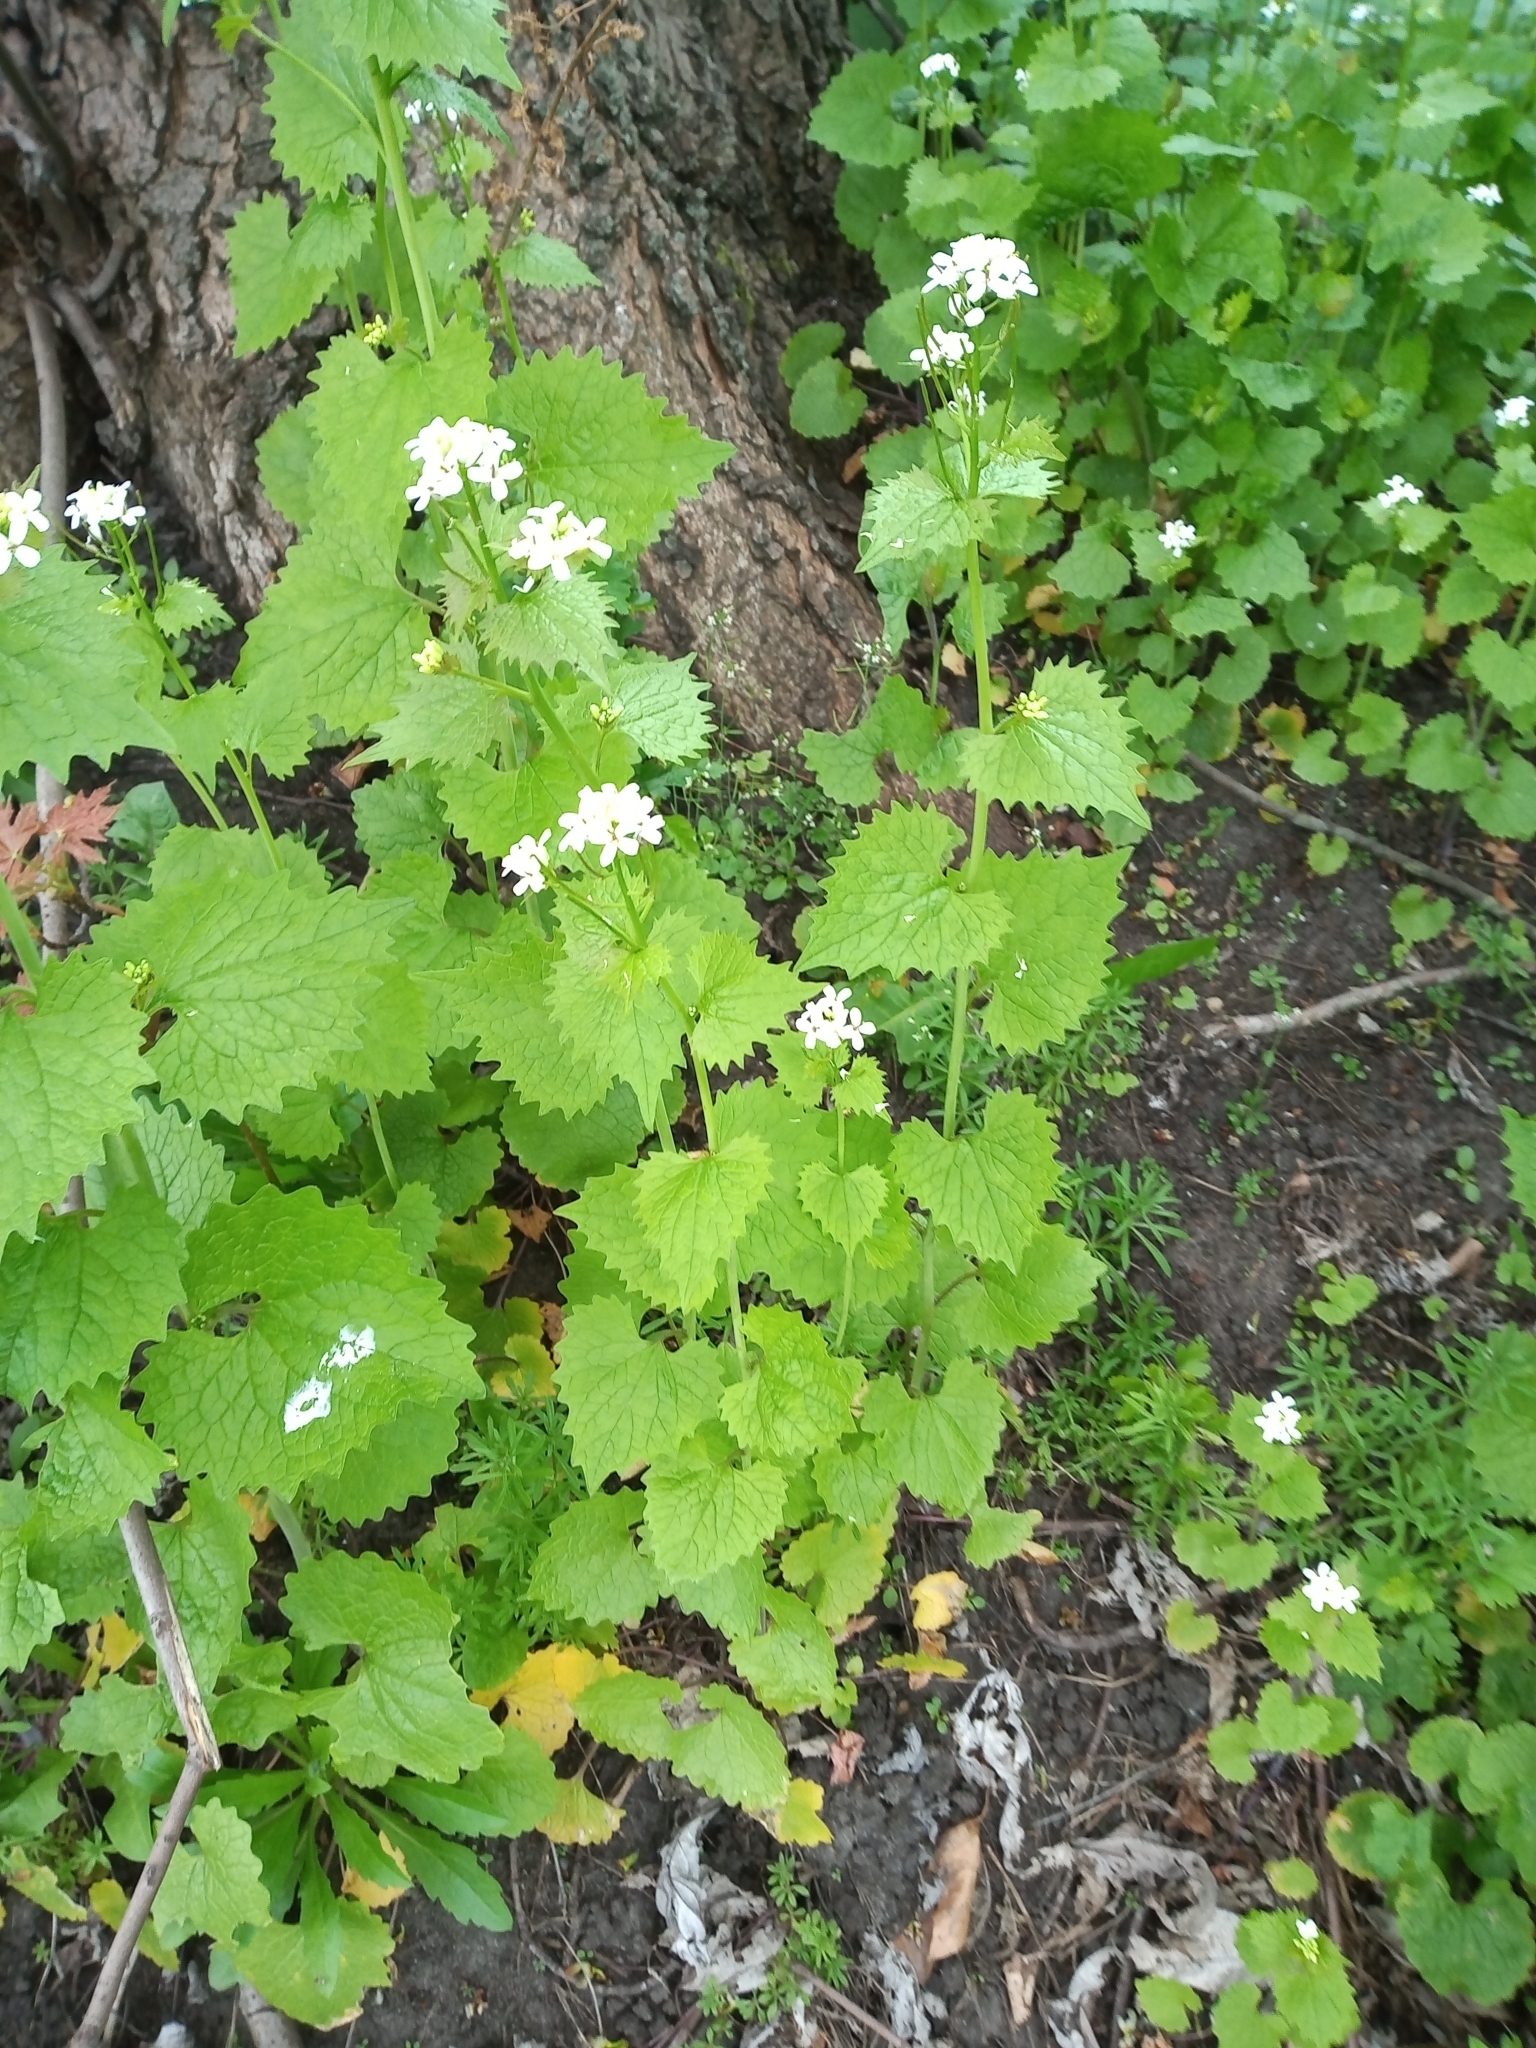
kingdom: Plantae
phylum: Tracheophyta
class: Magnoliopsida
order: Brassicales
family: Brassicaceae
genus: Alliaria
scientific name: Alliaria petiolata
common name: Garlic mustard
